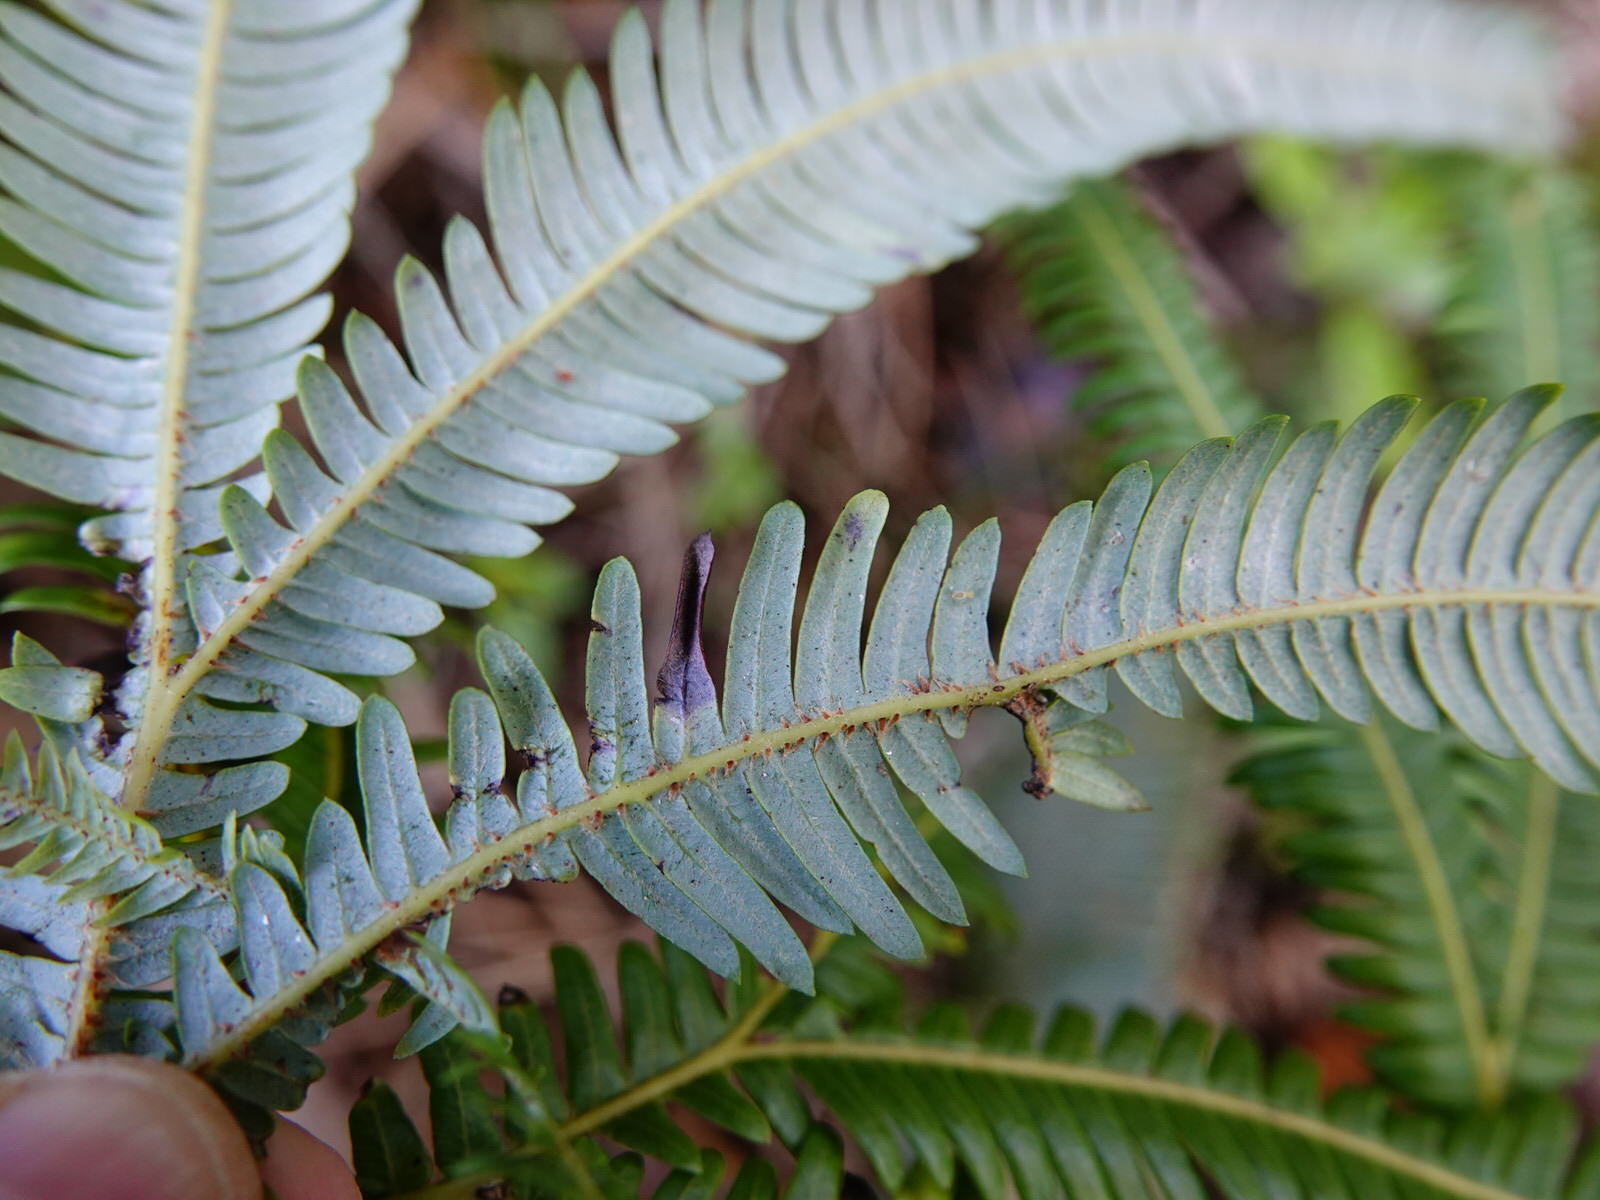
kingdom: Plantae
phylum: Tracheophyta
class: Polypodiopsida
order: Gleicheniales
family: Gleicheniaceae
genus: Sticherus
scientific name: Sticherus cunninghamii
